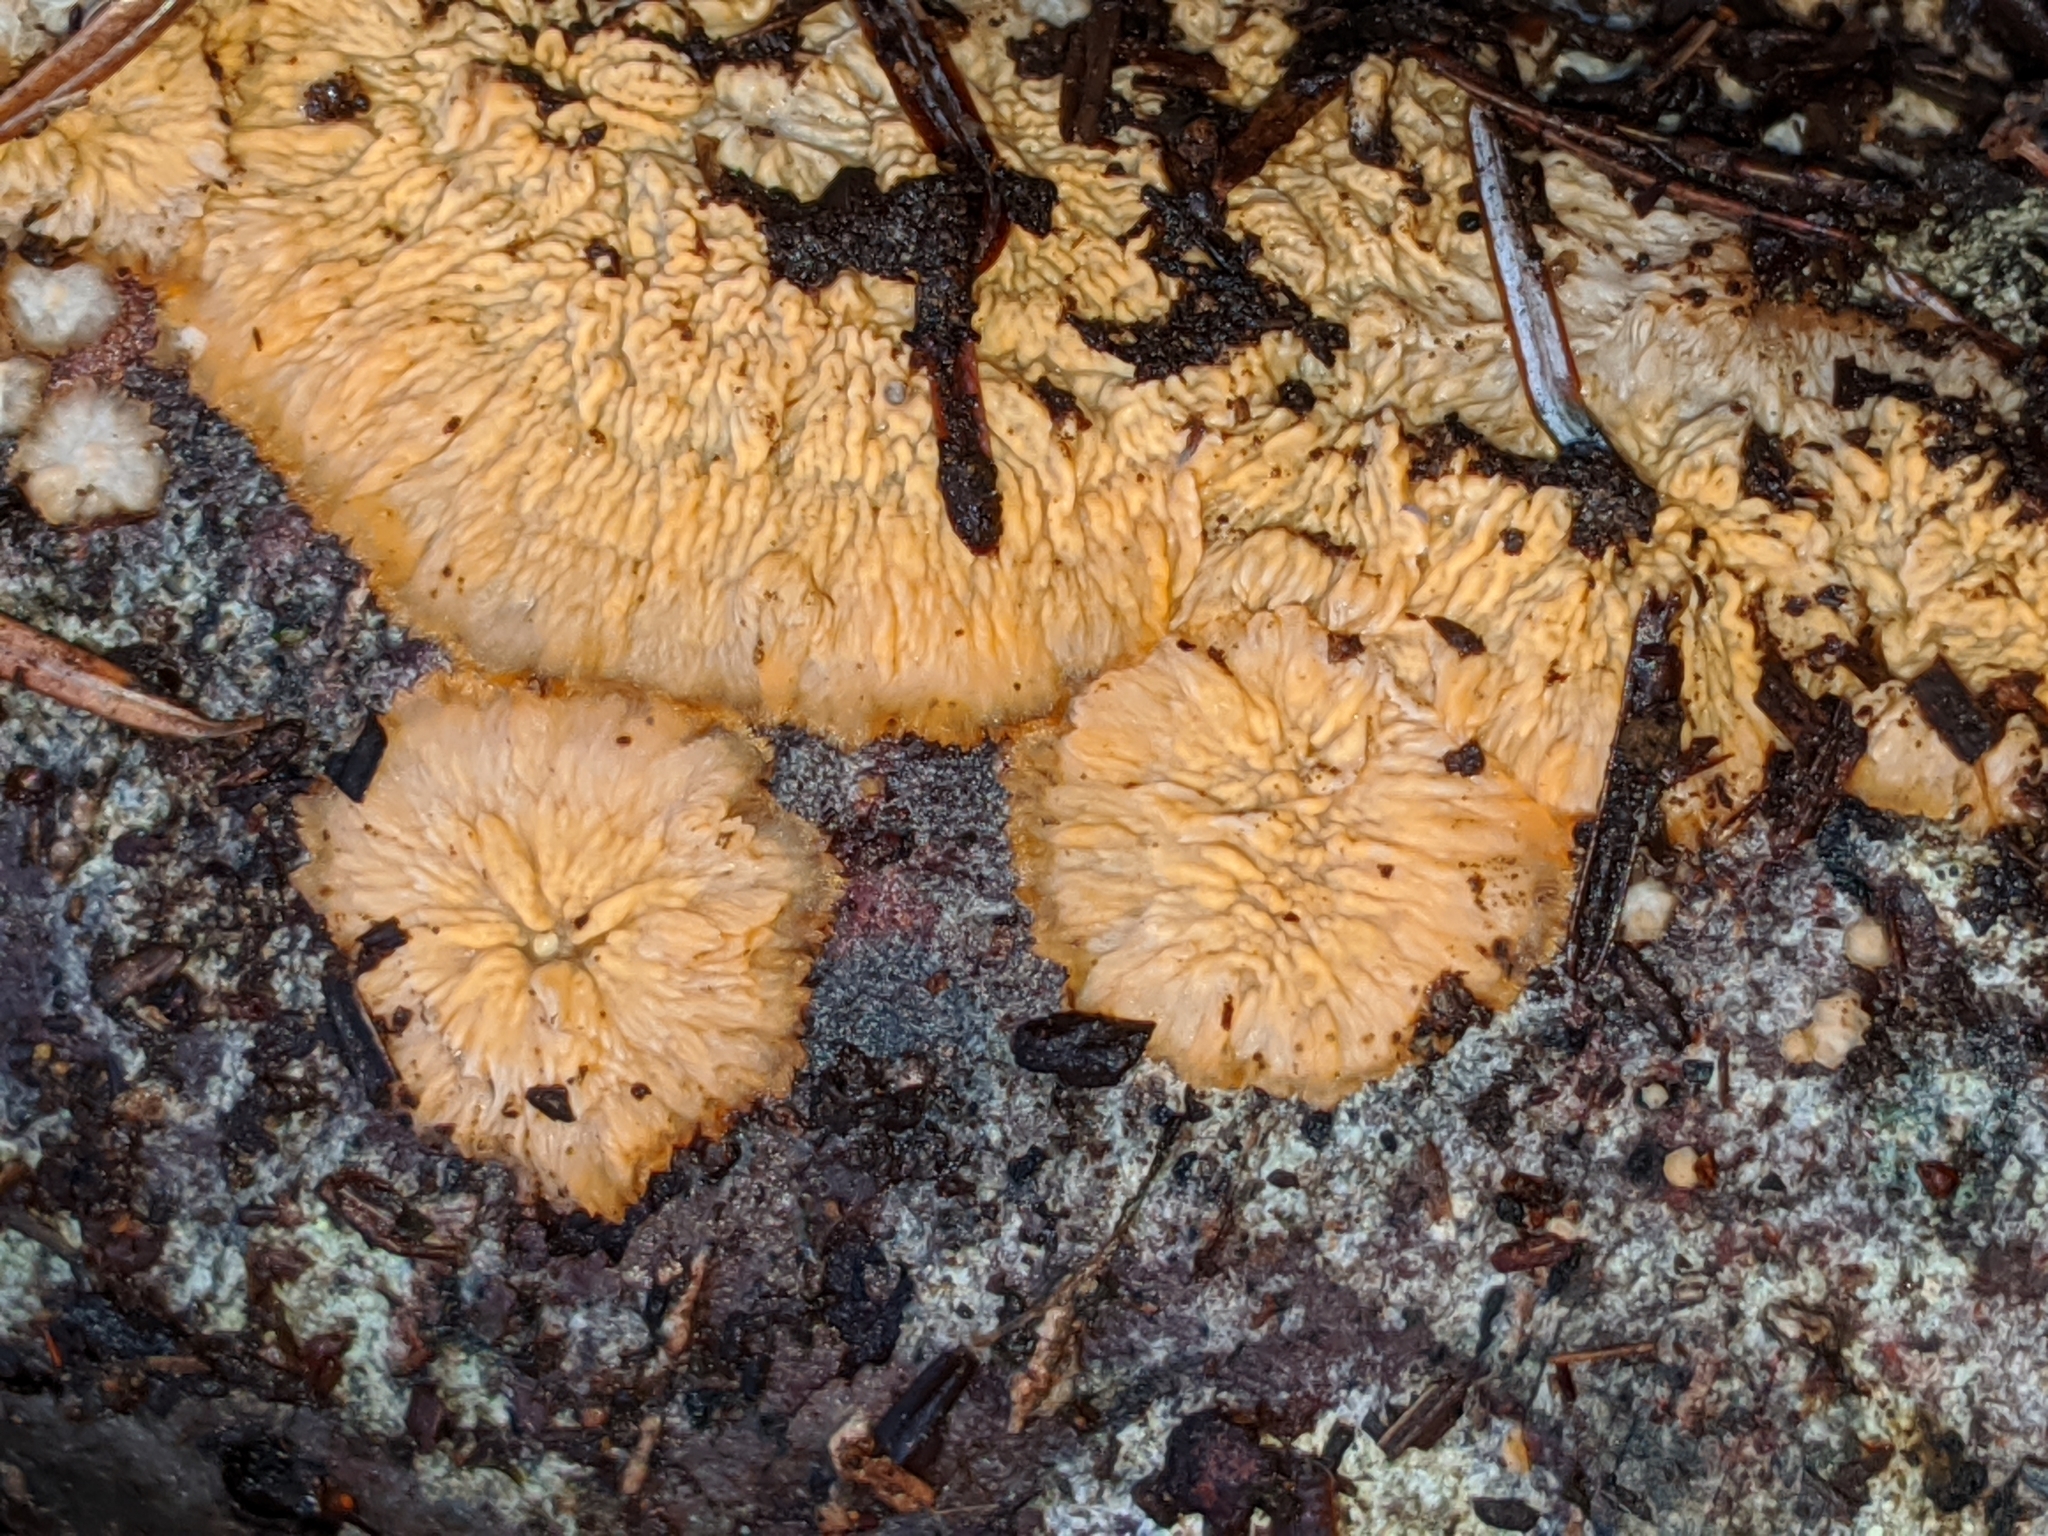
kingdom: Fungi
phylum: Basidiomycota
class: Agaricomycetes
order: Polyporales
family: Meruliaceae
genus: Phlebia
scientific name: Phlebia radiata
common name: Wrinkled crust
